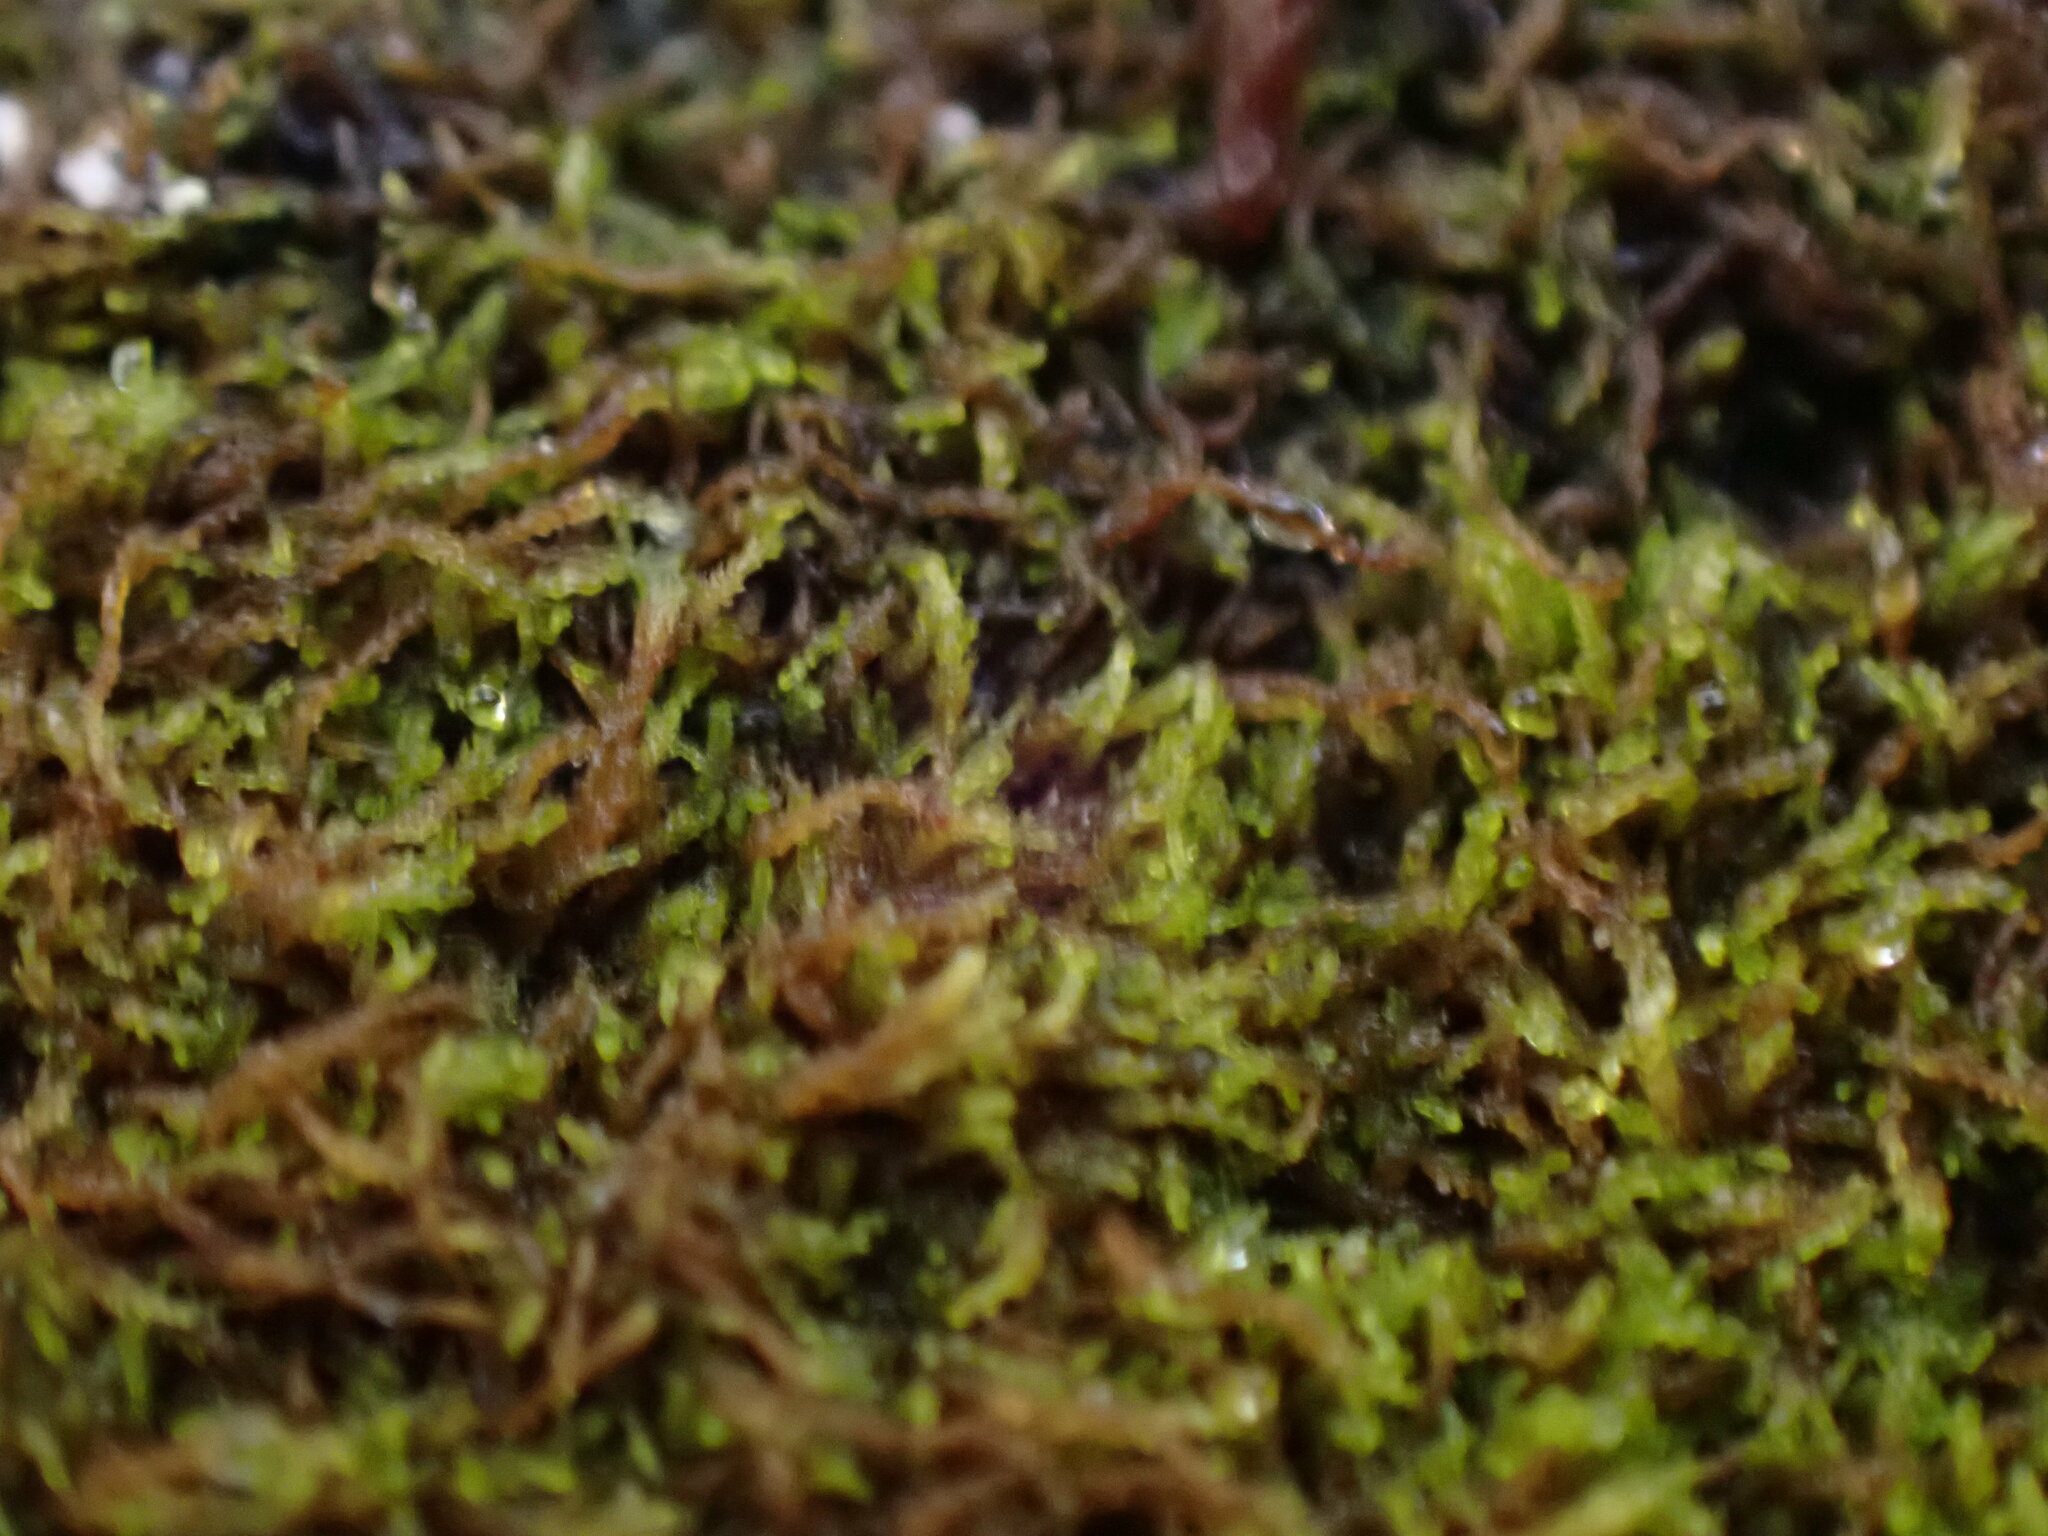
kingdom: Plantae
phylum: Marchantiophyta
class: Jungermanniopsida
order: Jungermanniales
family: Cephaloziellaceae
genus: Cephaloziella
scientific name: Cephaloziella divaricata
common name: Spreading threadwort
